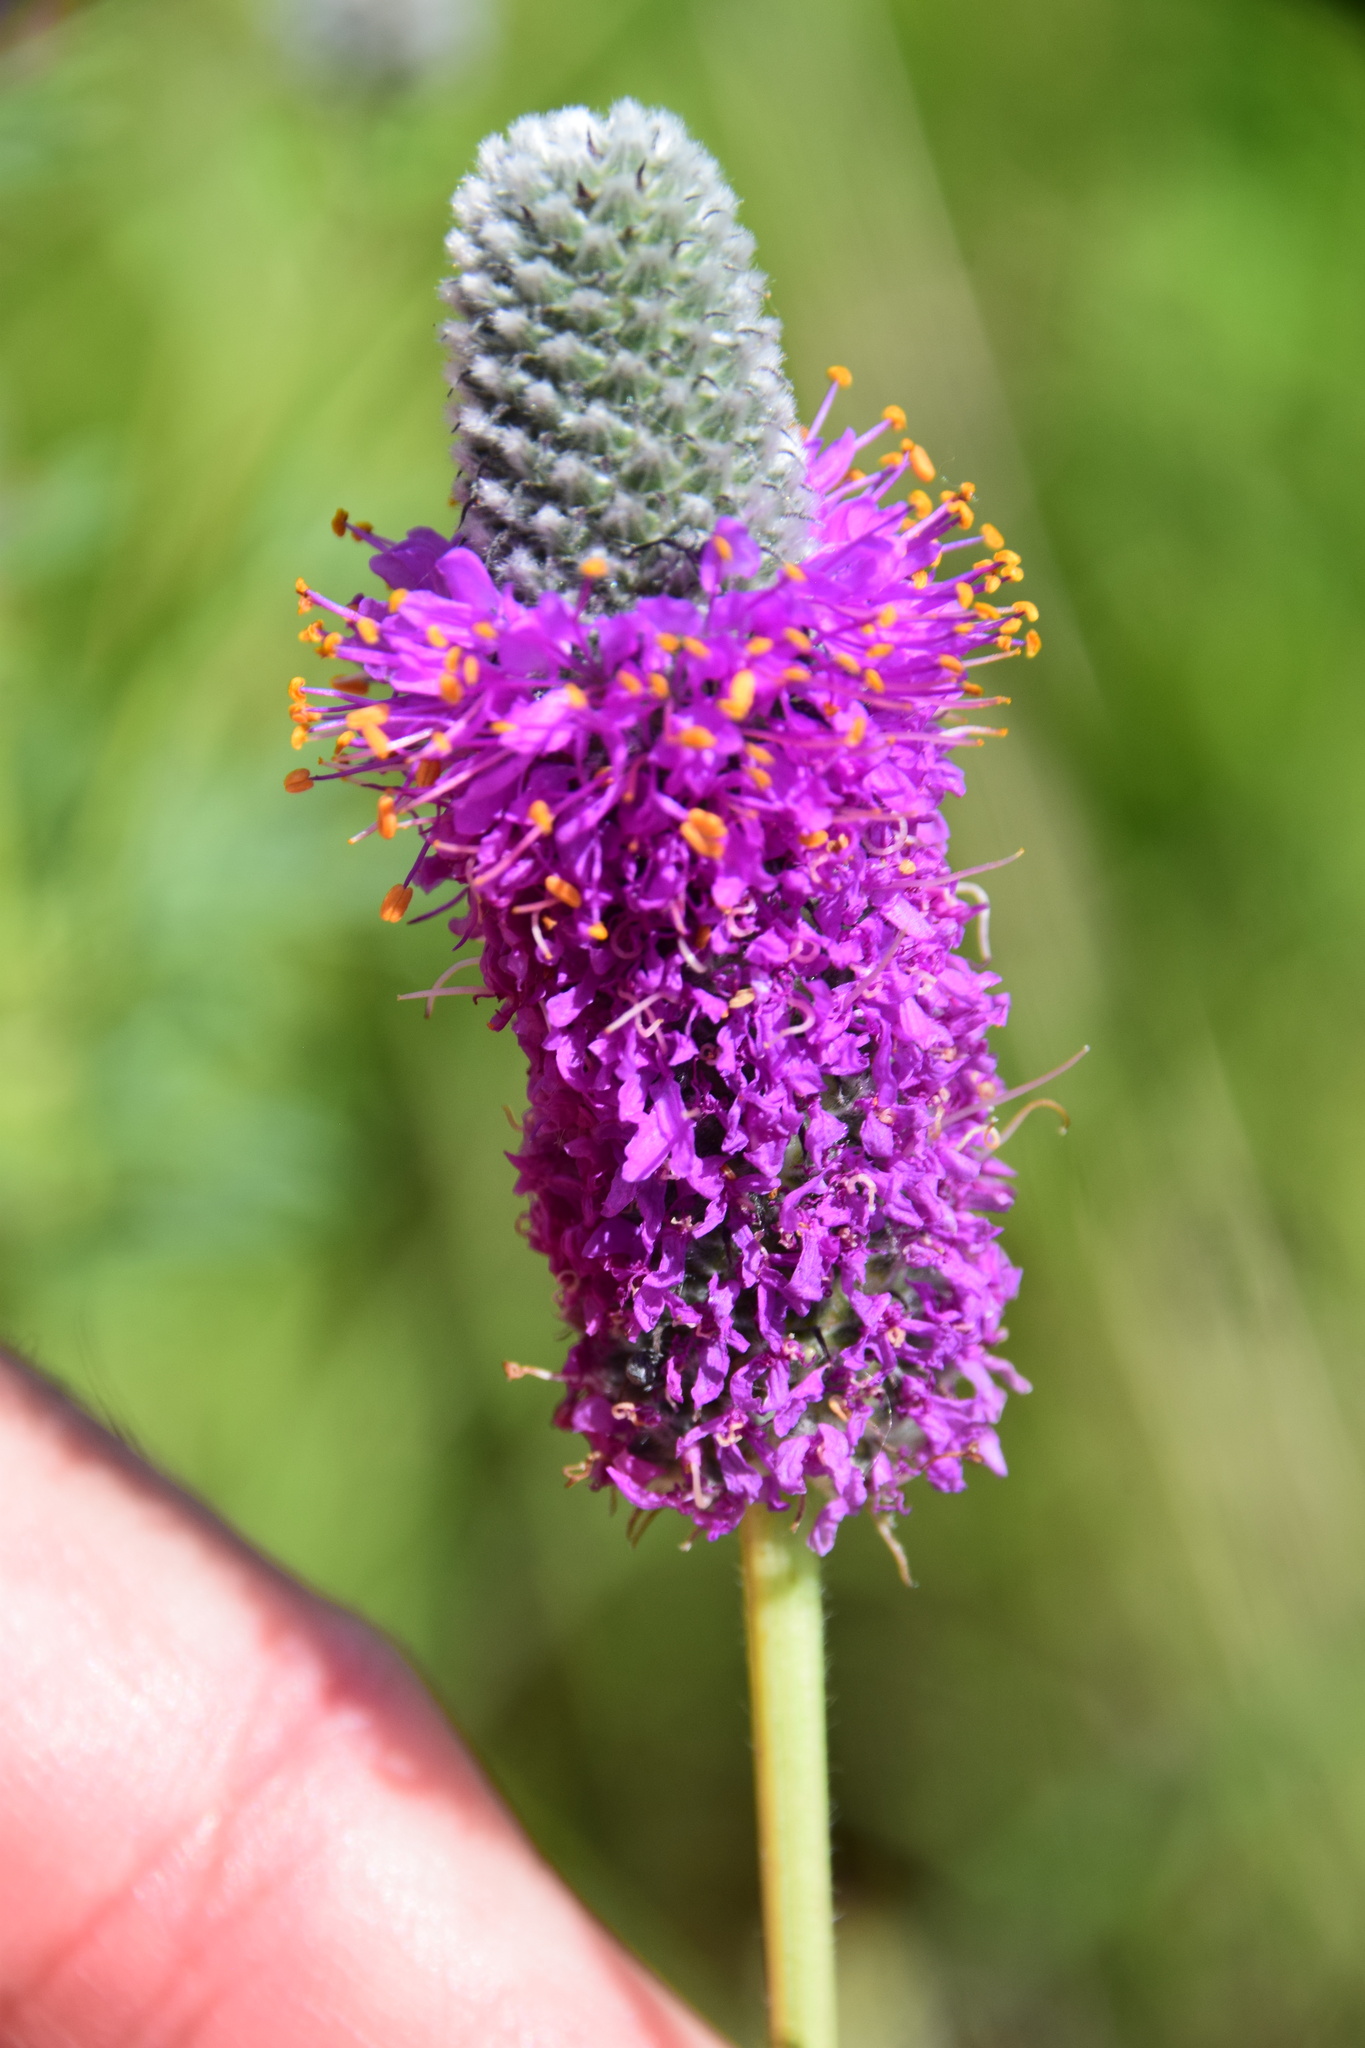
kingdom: Plantae
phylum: Tracheophyta
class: Magnoliopsida
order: Fabales
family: Fabaceae
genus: Dalea
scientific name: Dalea purpurea
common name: Purple prairie-clover
